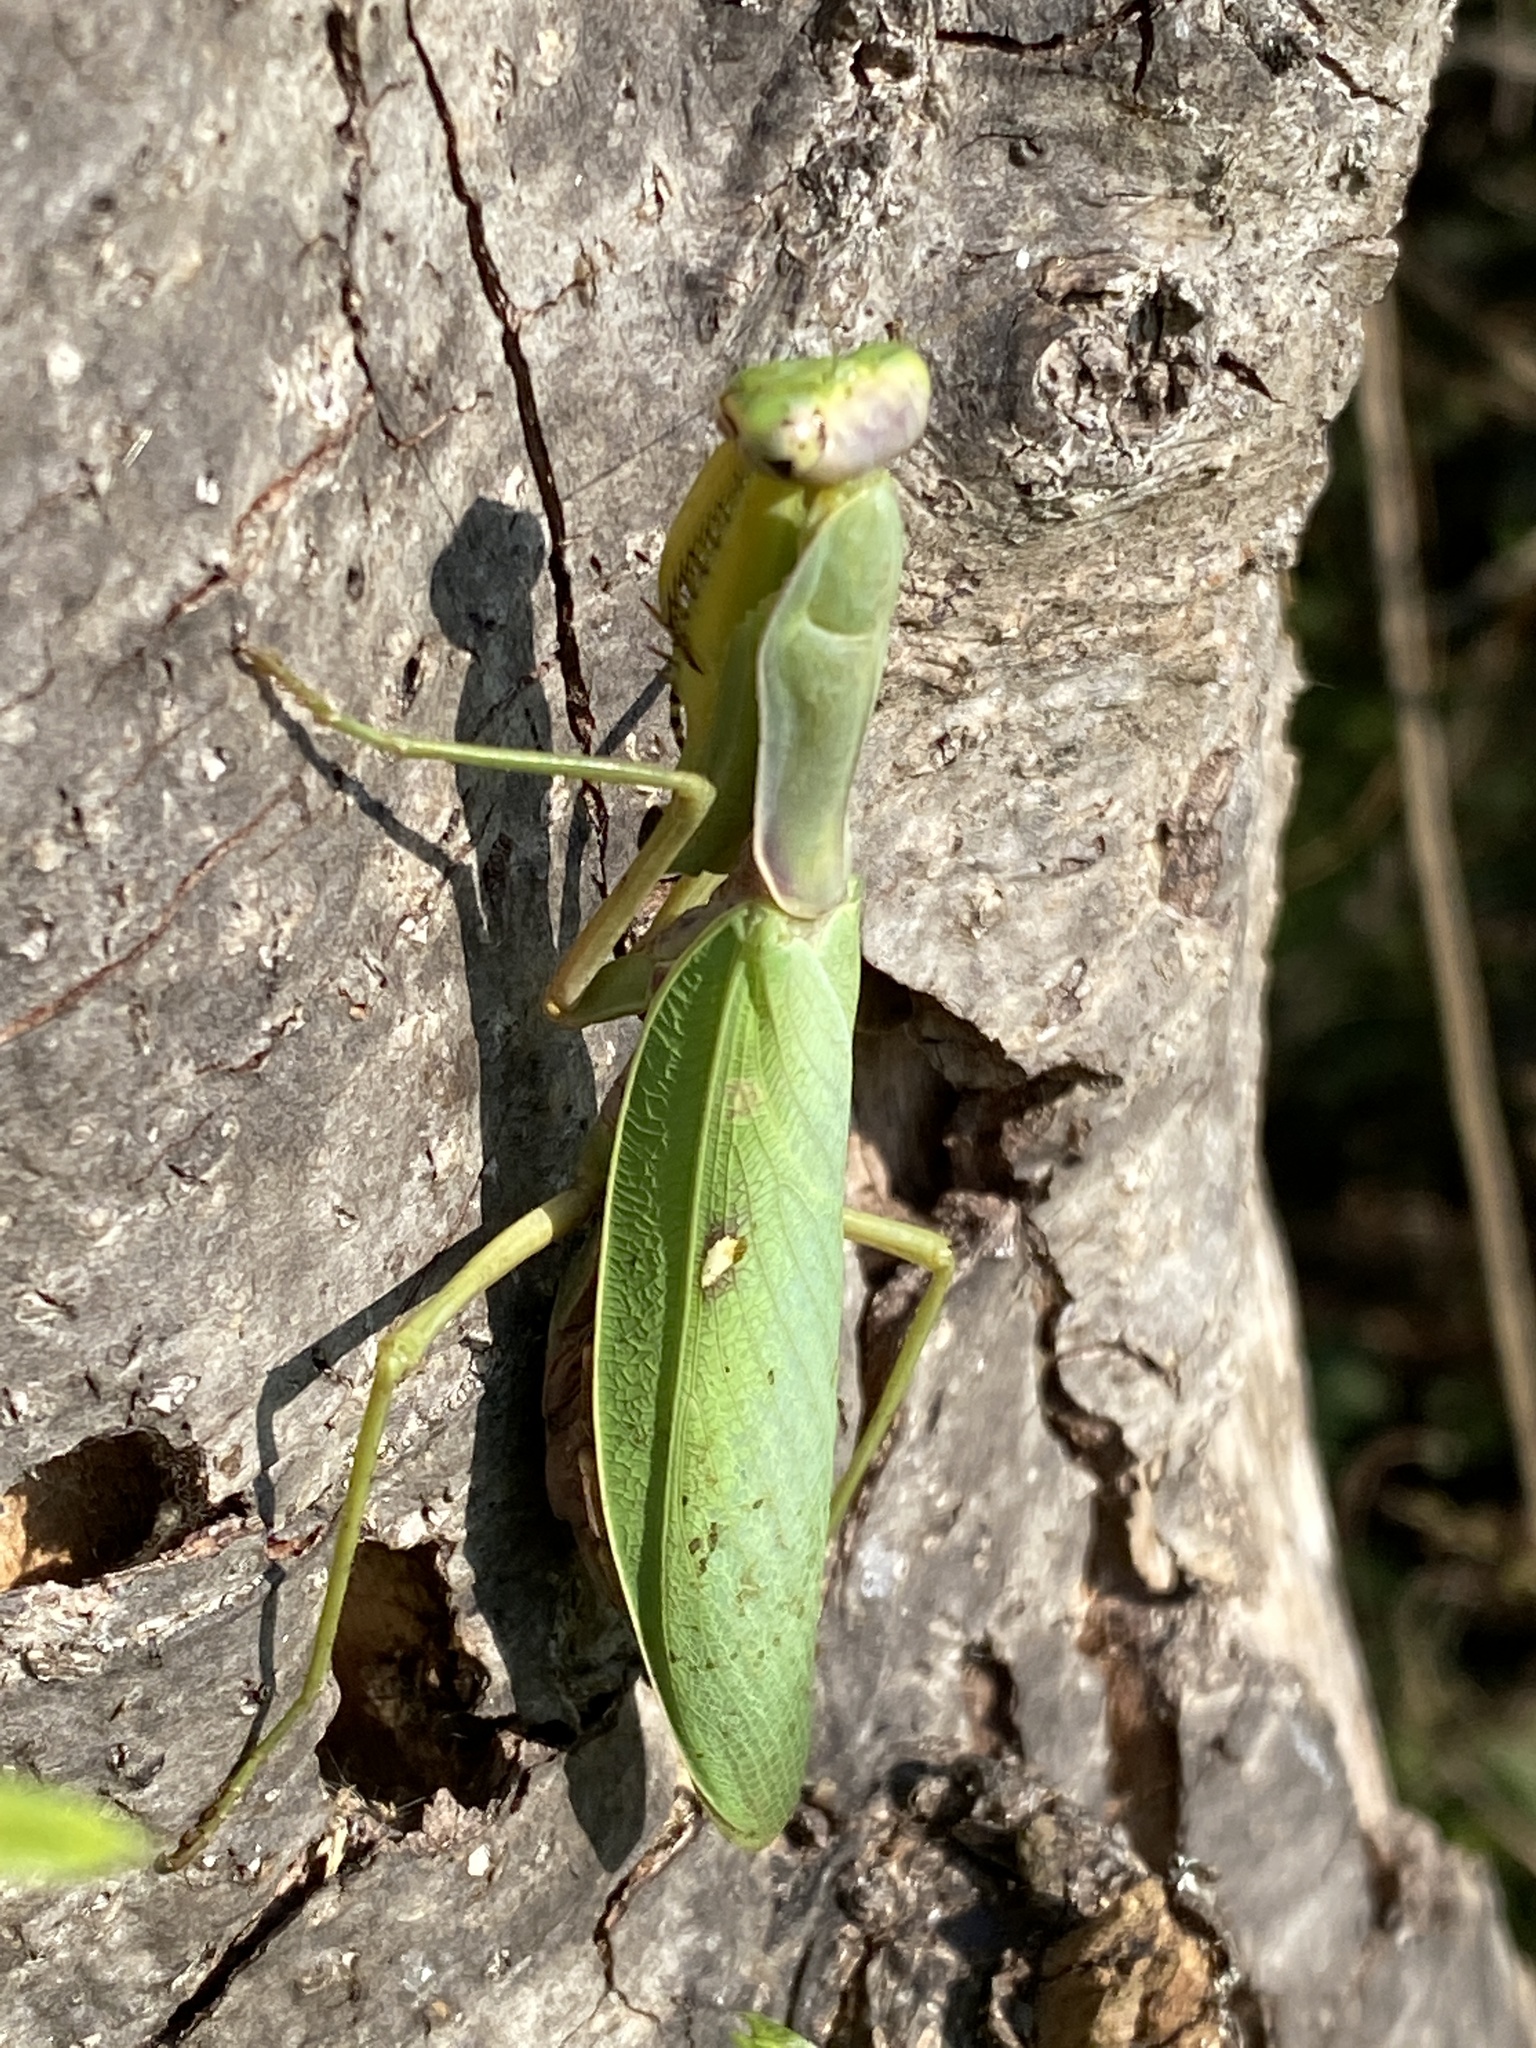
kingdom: Animalia
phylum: Arthropoda
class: Insecta
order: Mantodea
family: Mantidae
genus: Hierodula
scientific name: Hierodula transcaucasica
